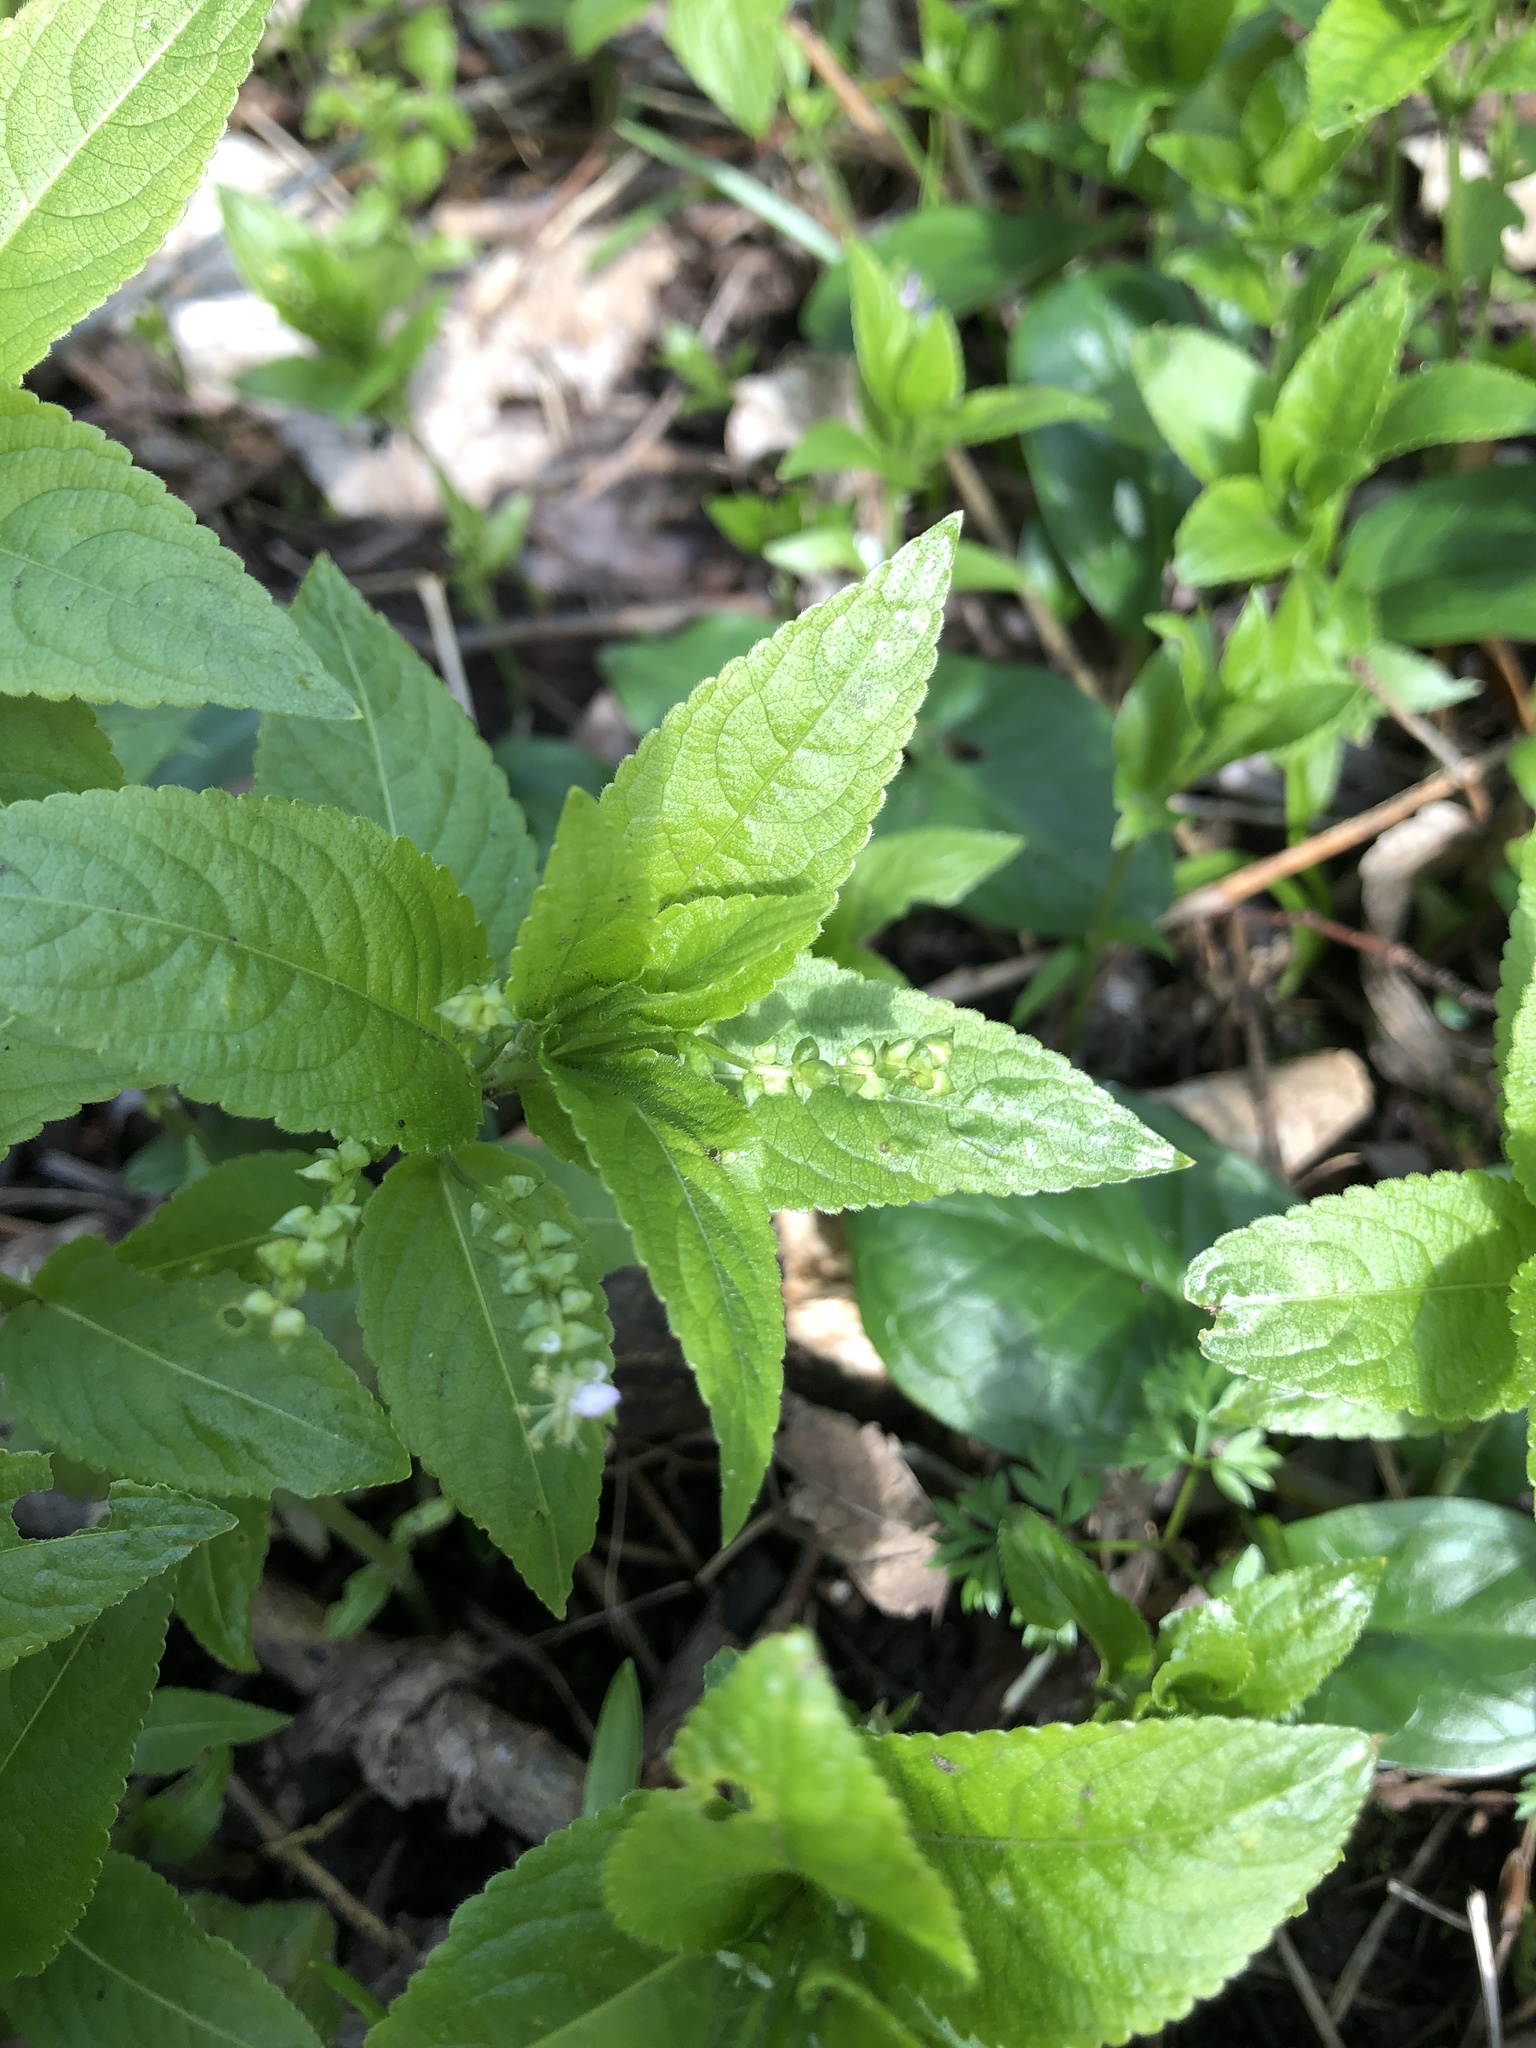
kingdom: Plantae
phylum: Tracheophyta
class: Magnoliopsida
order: Malpighiales
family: Euphorbiaceae
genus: Mercurialis
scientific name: Mercurialis perennis
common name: Dog mercury
